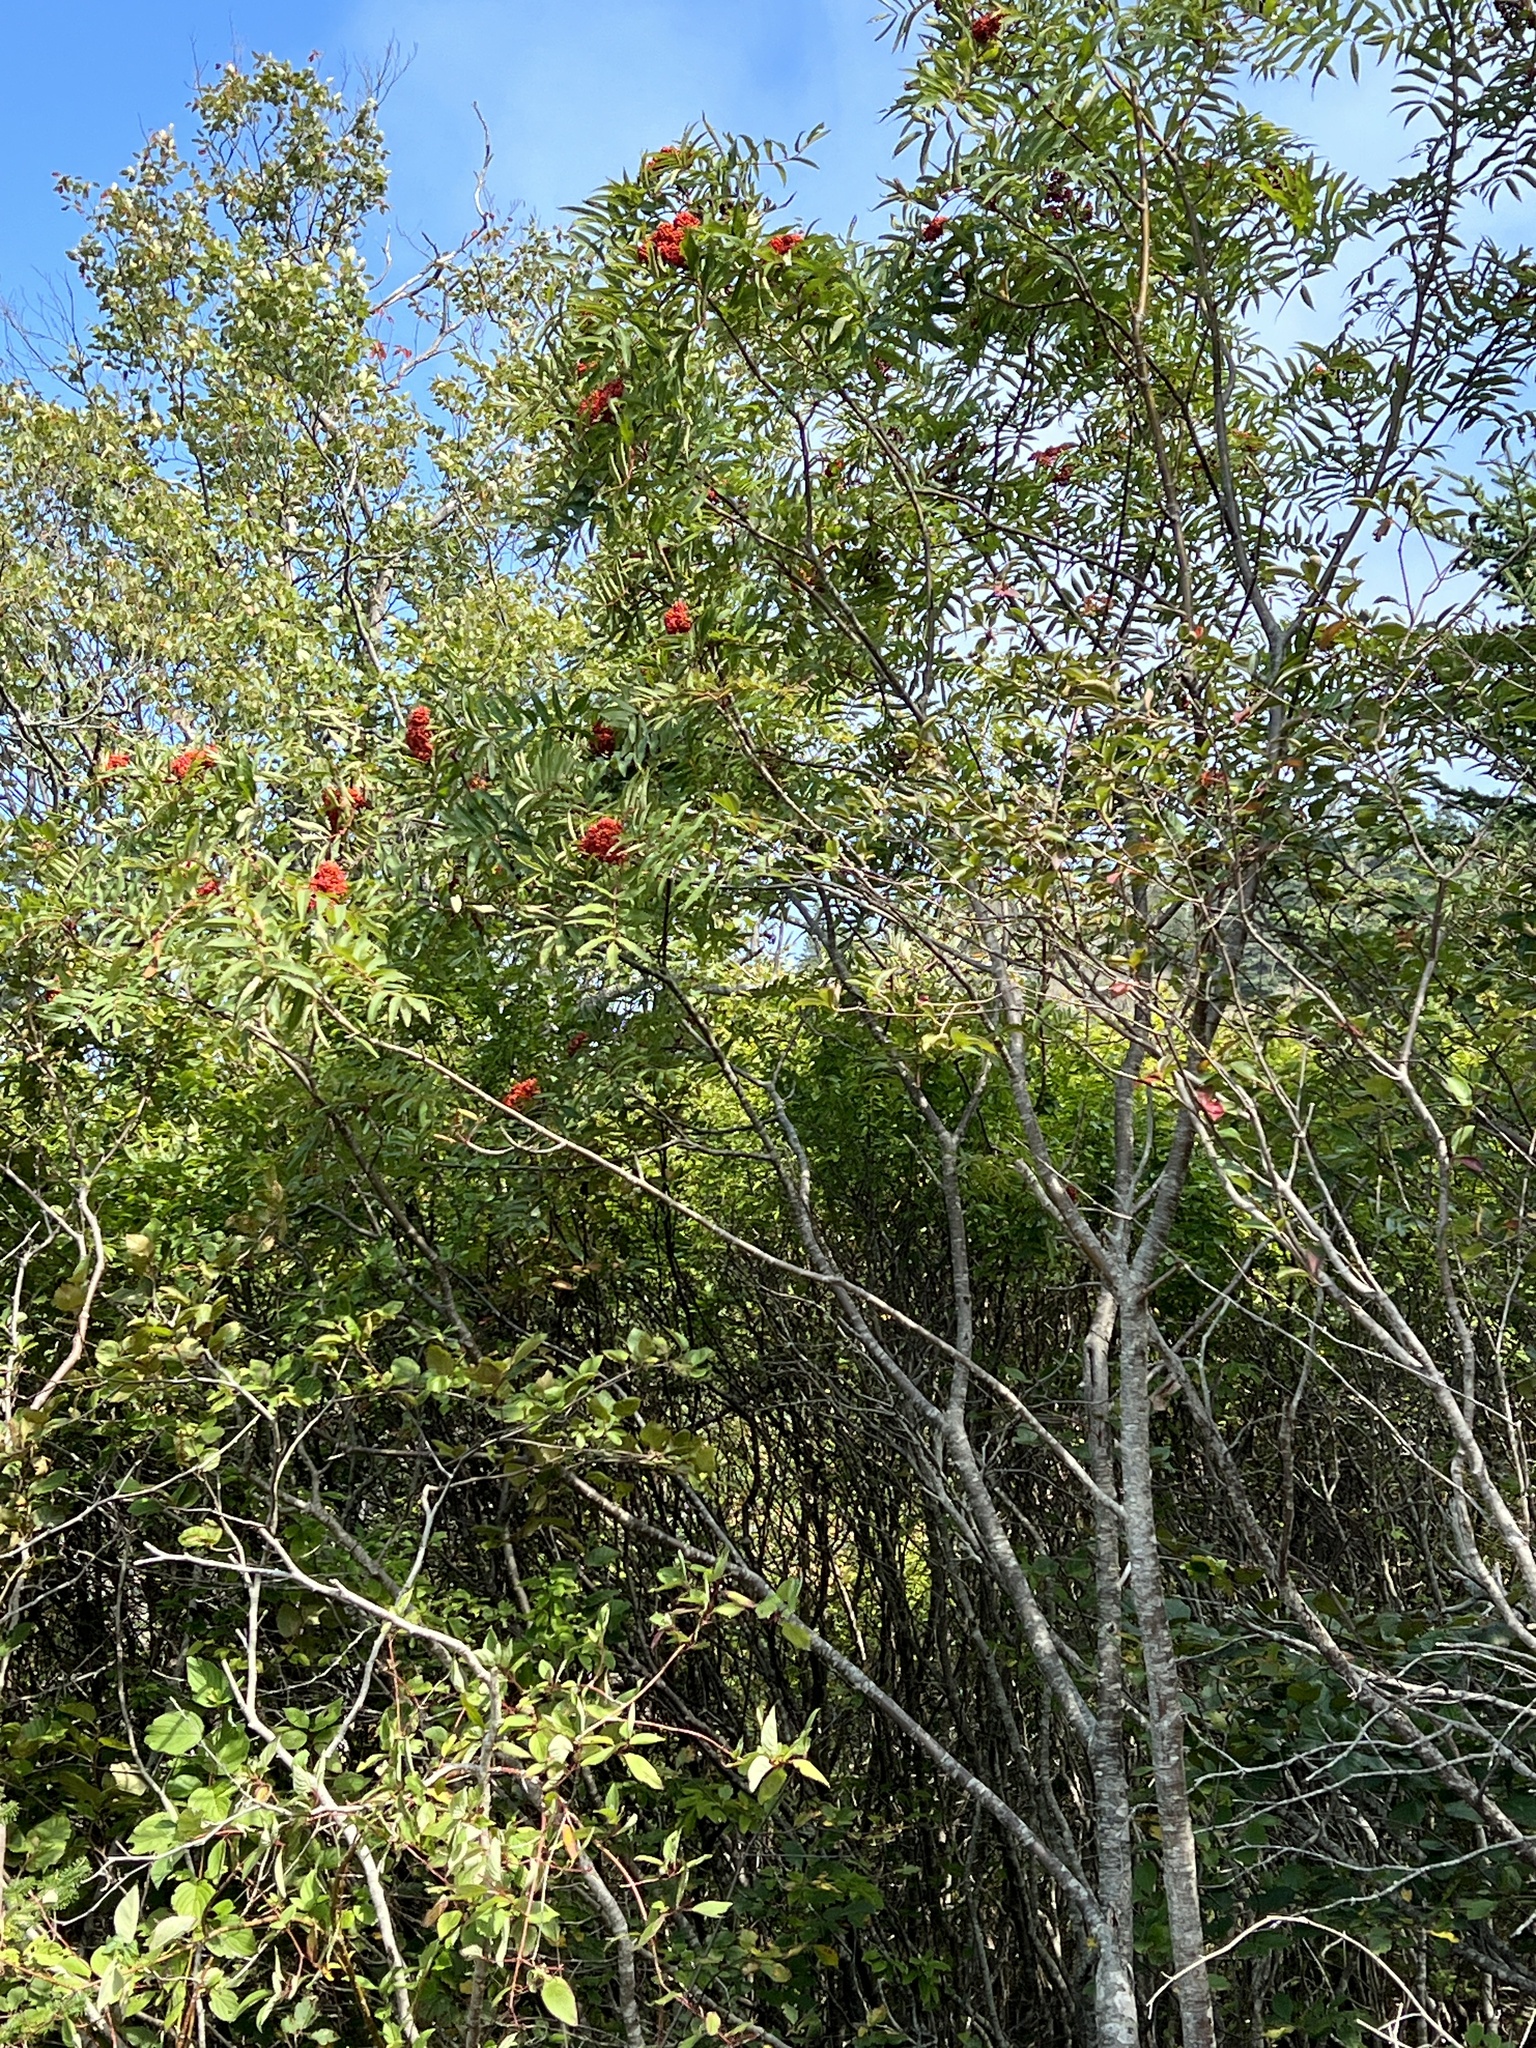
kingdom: Plantae
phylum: Tracheophyta
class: Magnoliopsida
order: Rosales
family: Rosaceae
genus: Sorbus
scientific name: Sorbus aucuparia
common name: Rowan
